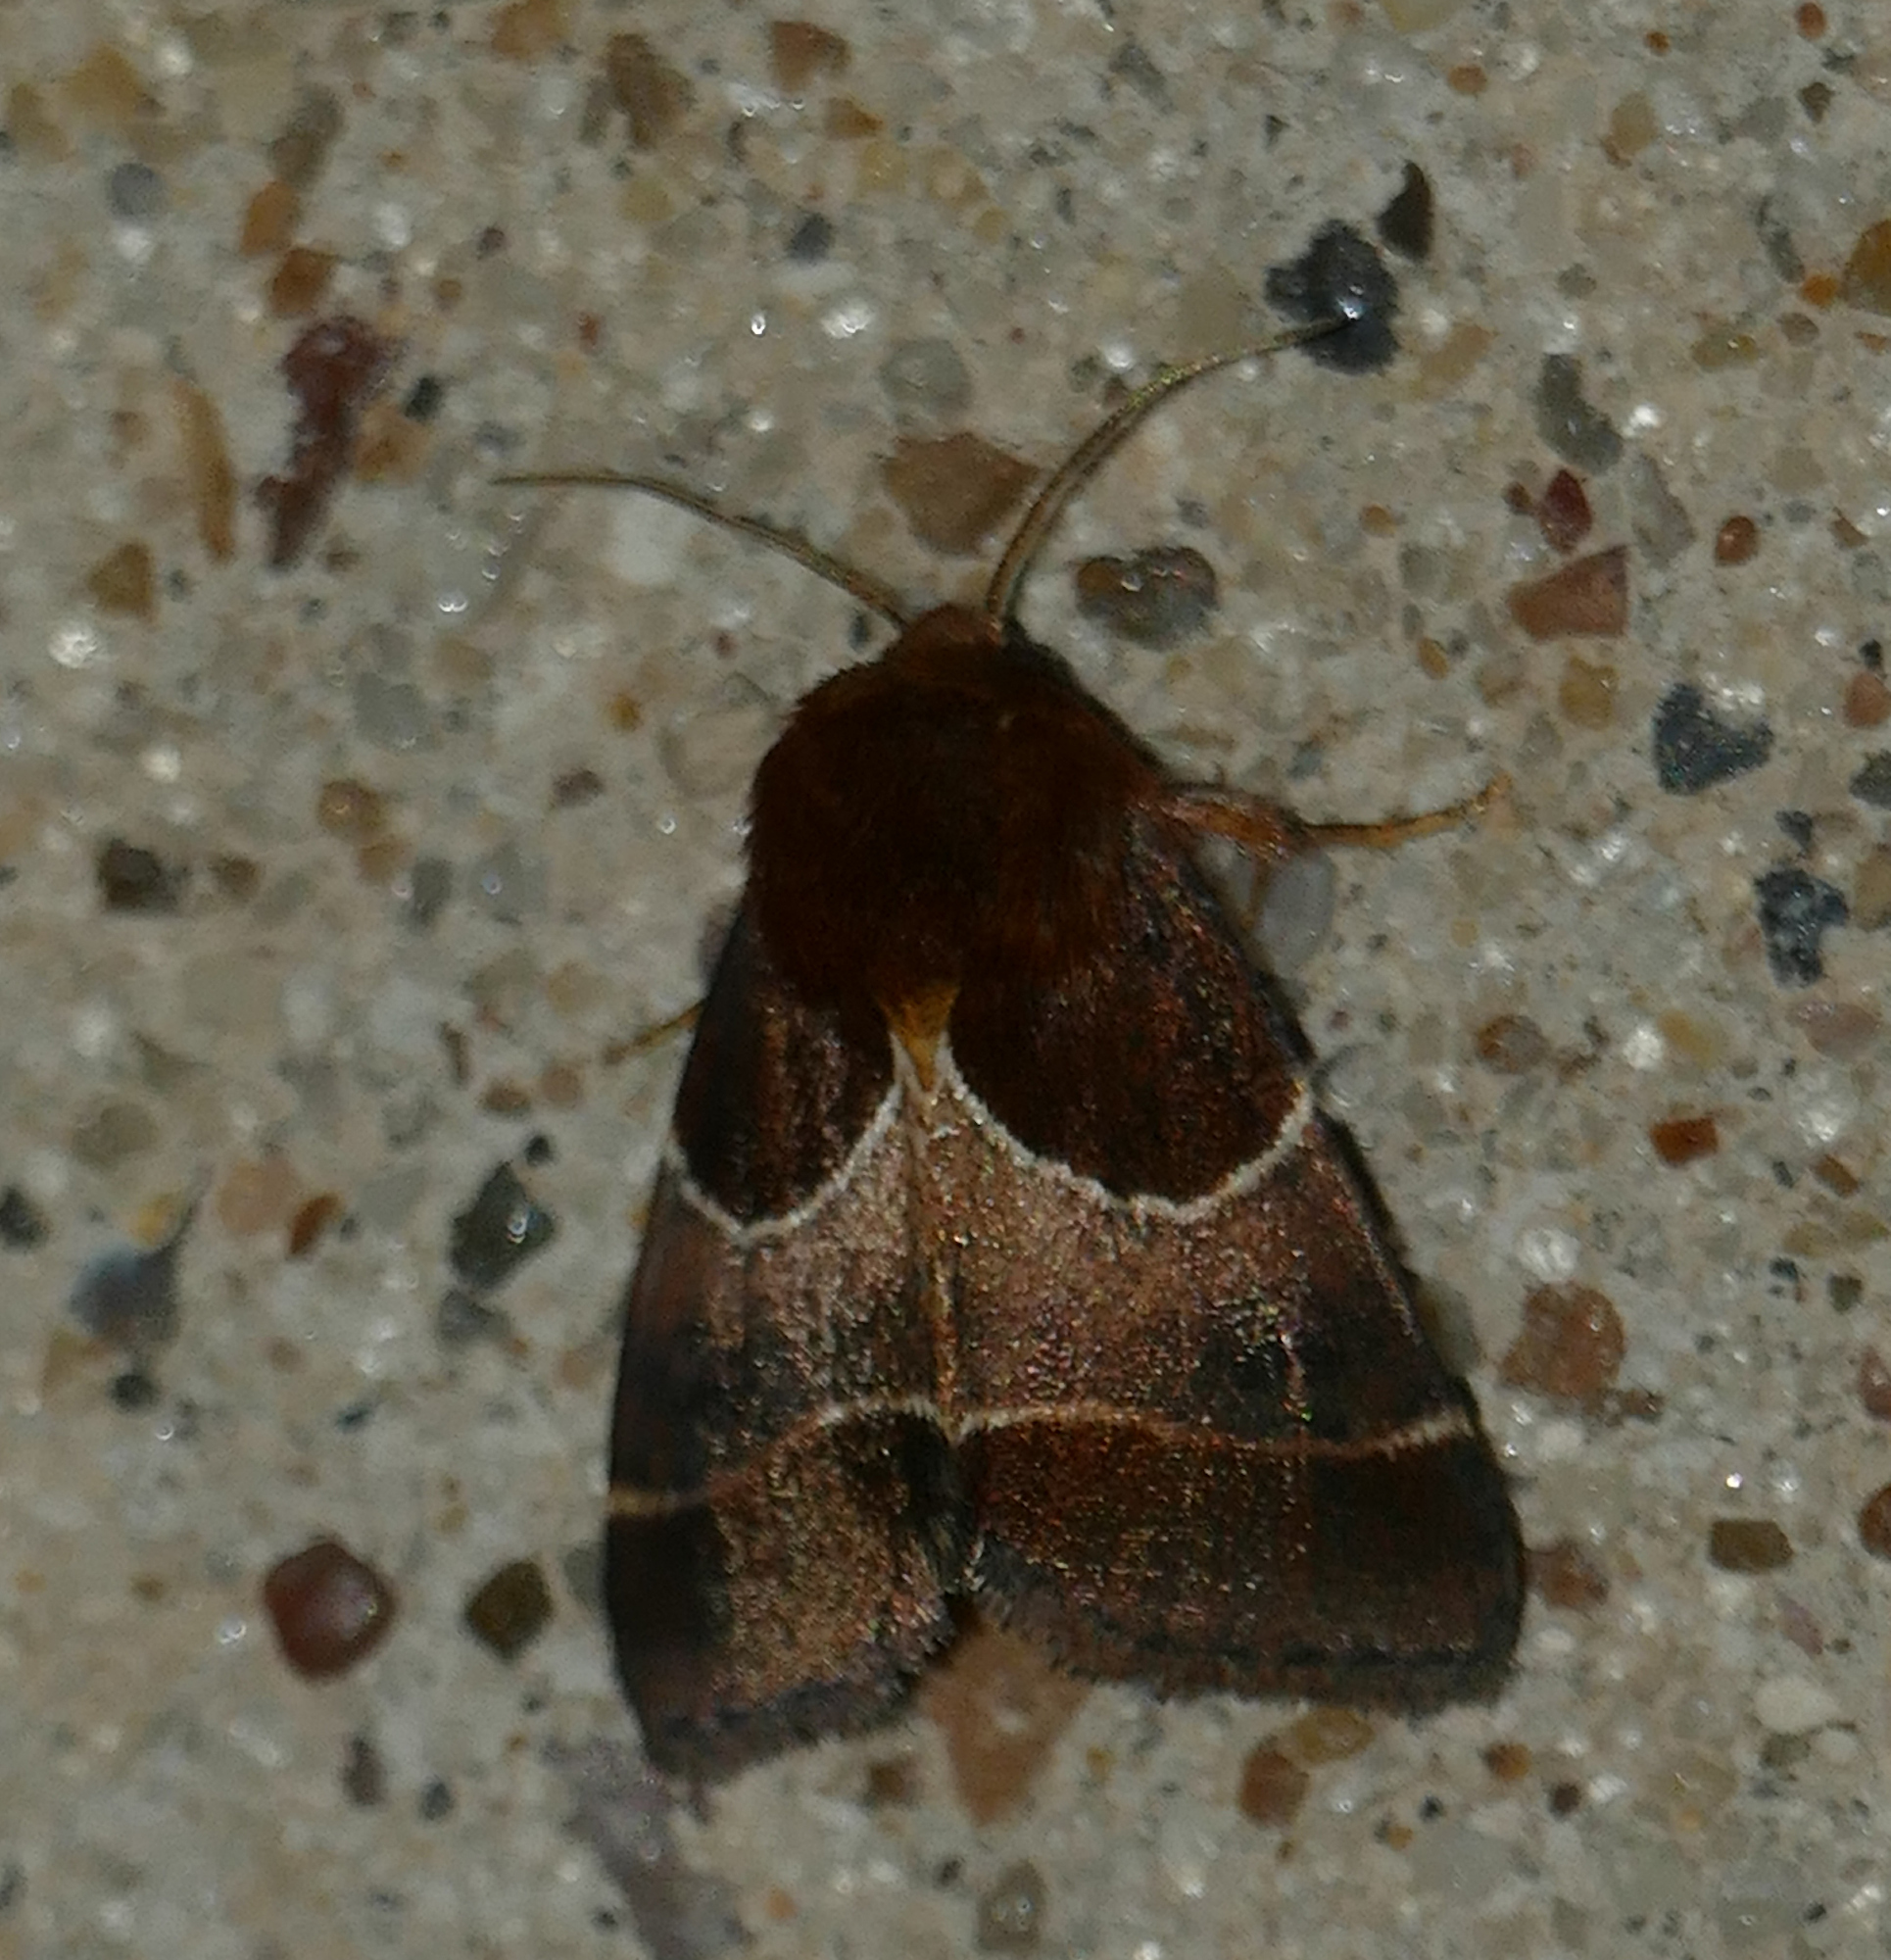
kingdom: Animalia
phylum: Arthropoda
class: Insecta
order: Lepidoptera
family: Noctuidae
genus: Schinia
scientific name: Schinia arcigera
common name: Arcigera flower moth
